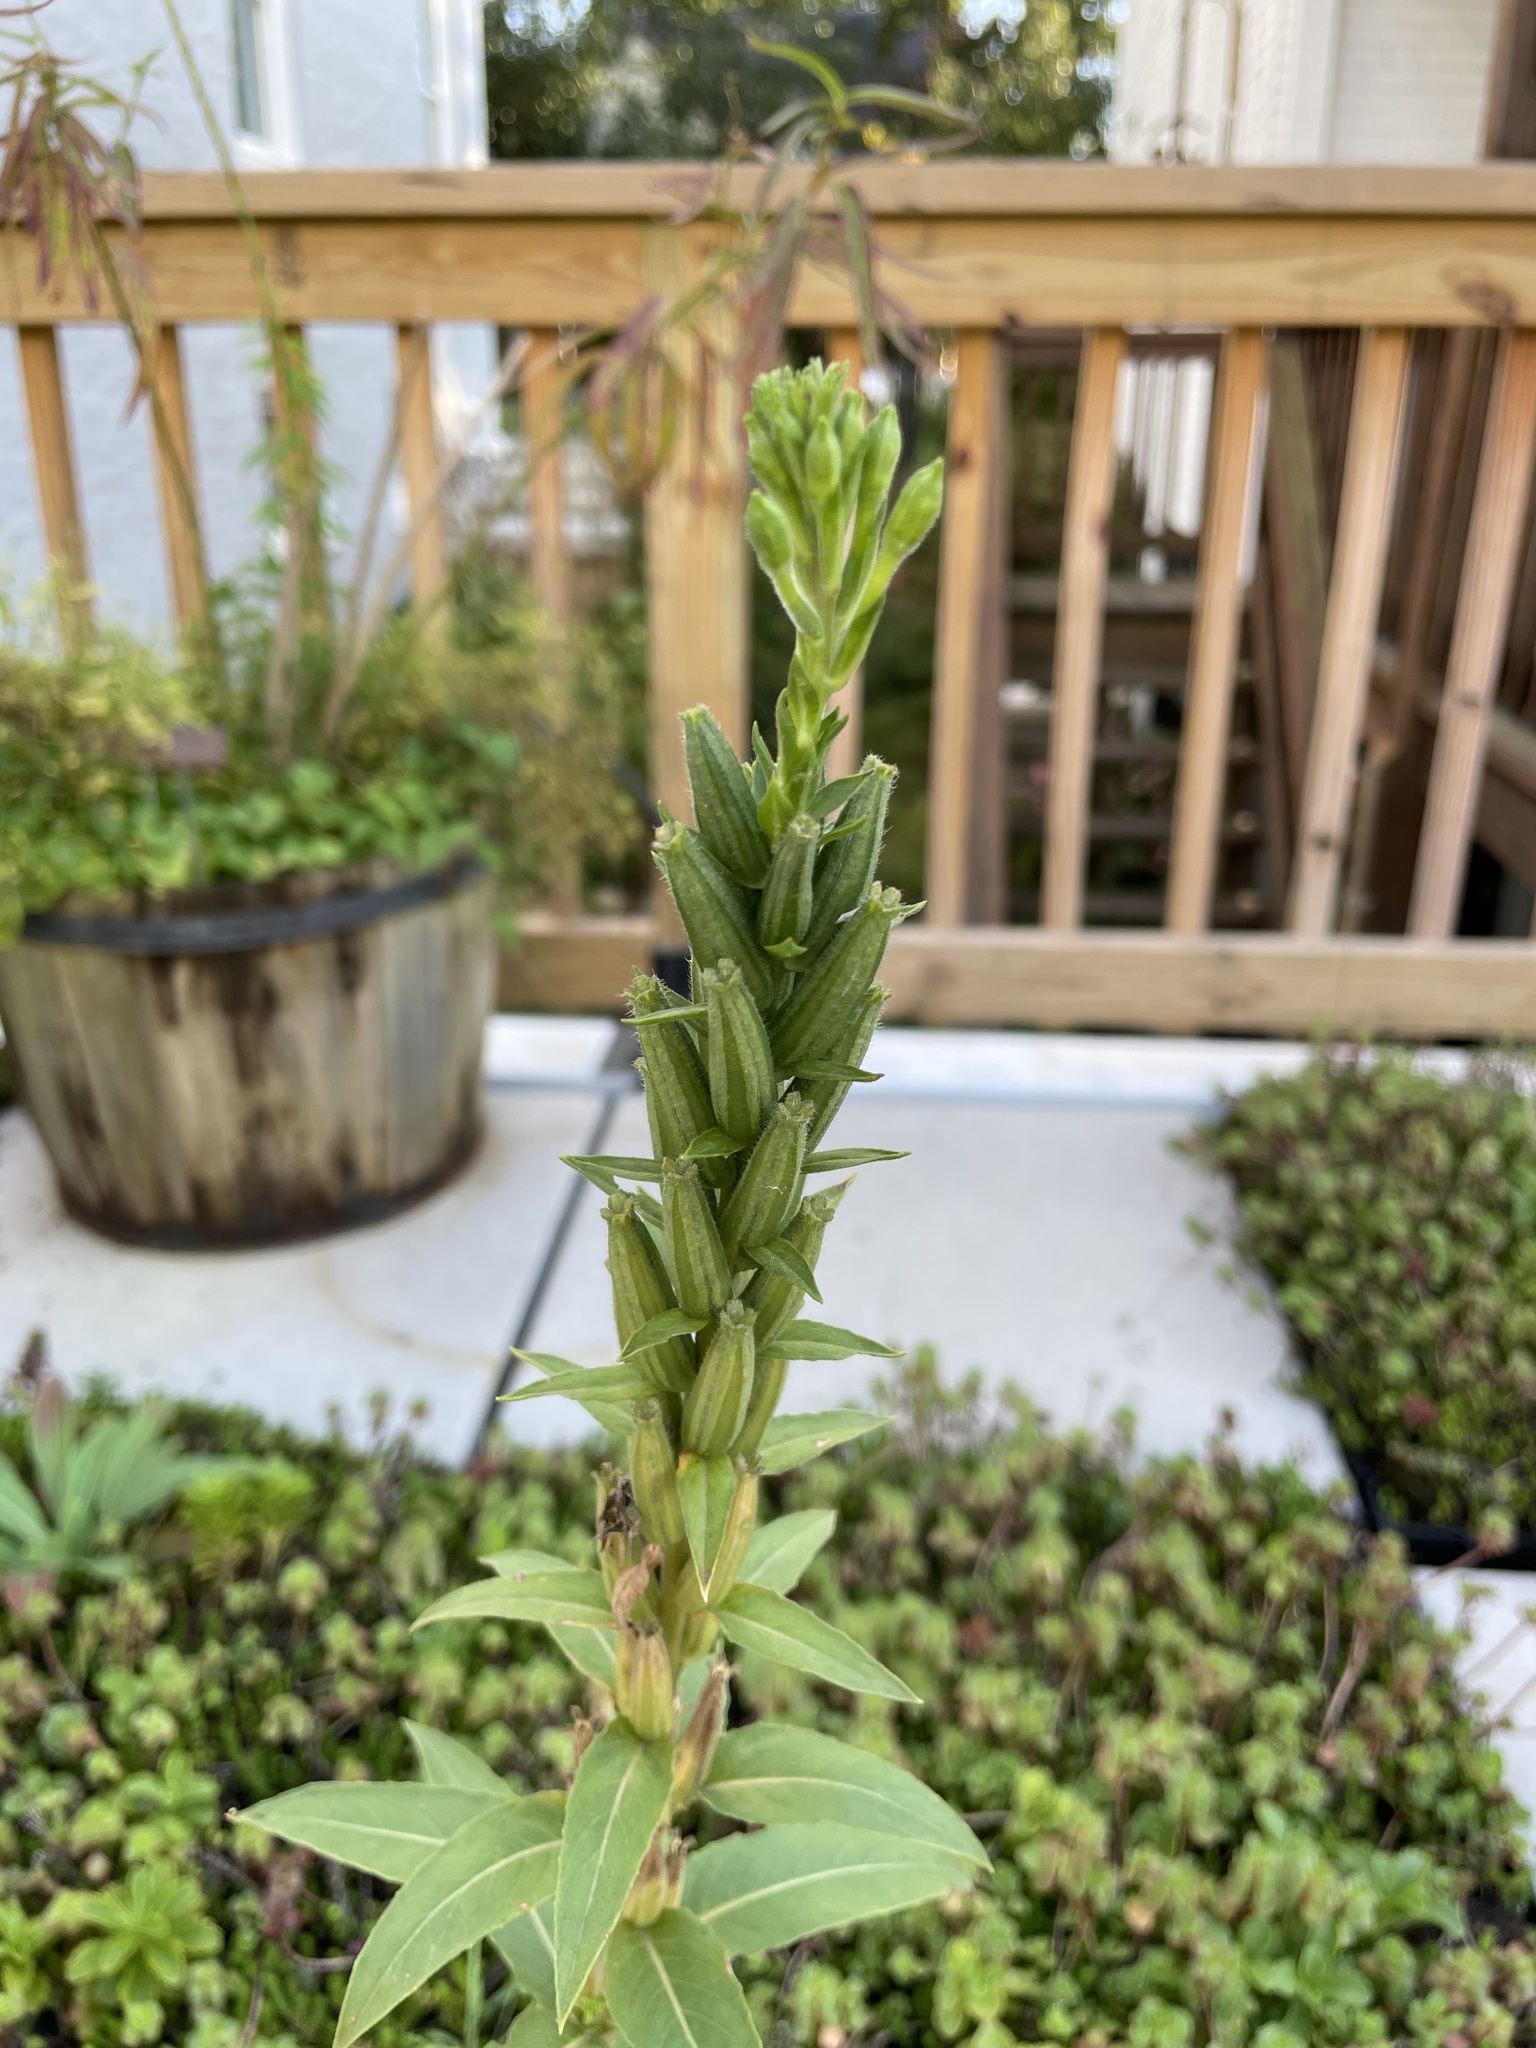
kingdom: Plantae
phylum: Tracheophyta
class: Magnoliopsida
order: Myrtales
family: Onagraceae
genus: Oenothera
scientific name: Oenothera biennis
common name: Common evening-primrose
